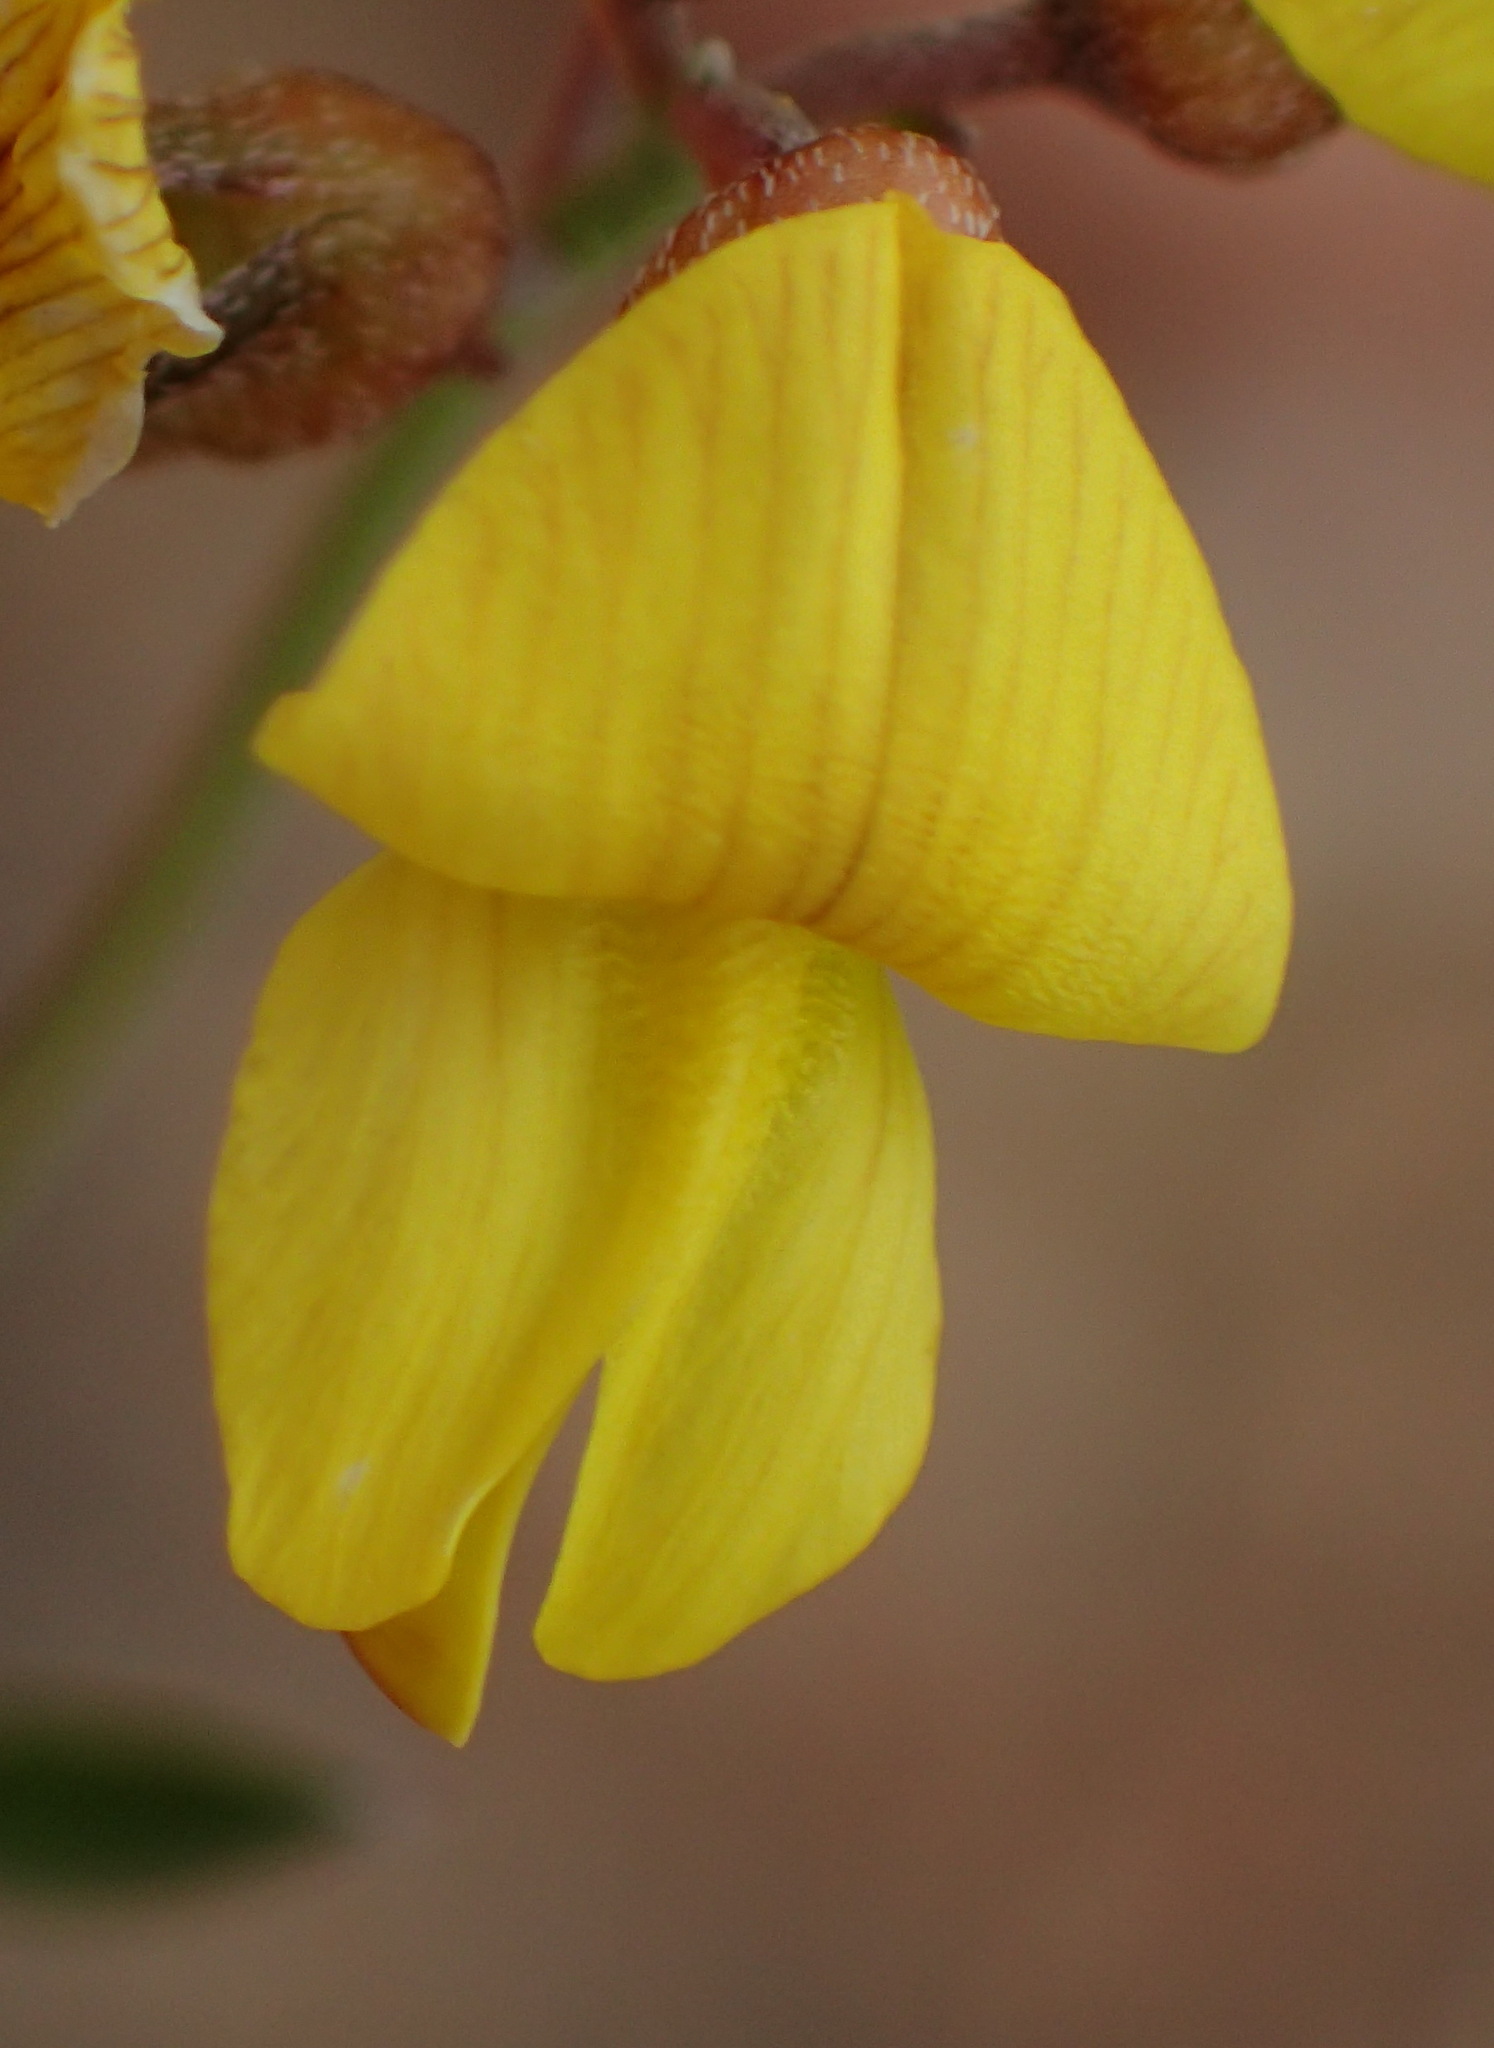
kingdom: Plantae
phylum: Tracheophyta
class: Magnoliopsida
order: Fabales
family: Fabaceae
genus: Lotononis
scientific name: Lotononis acocksii
